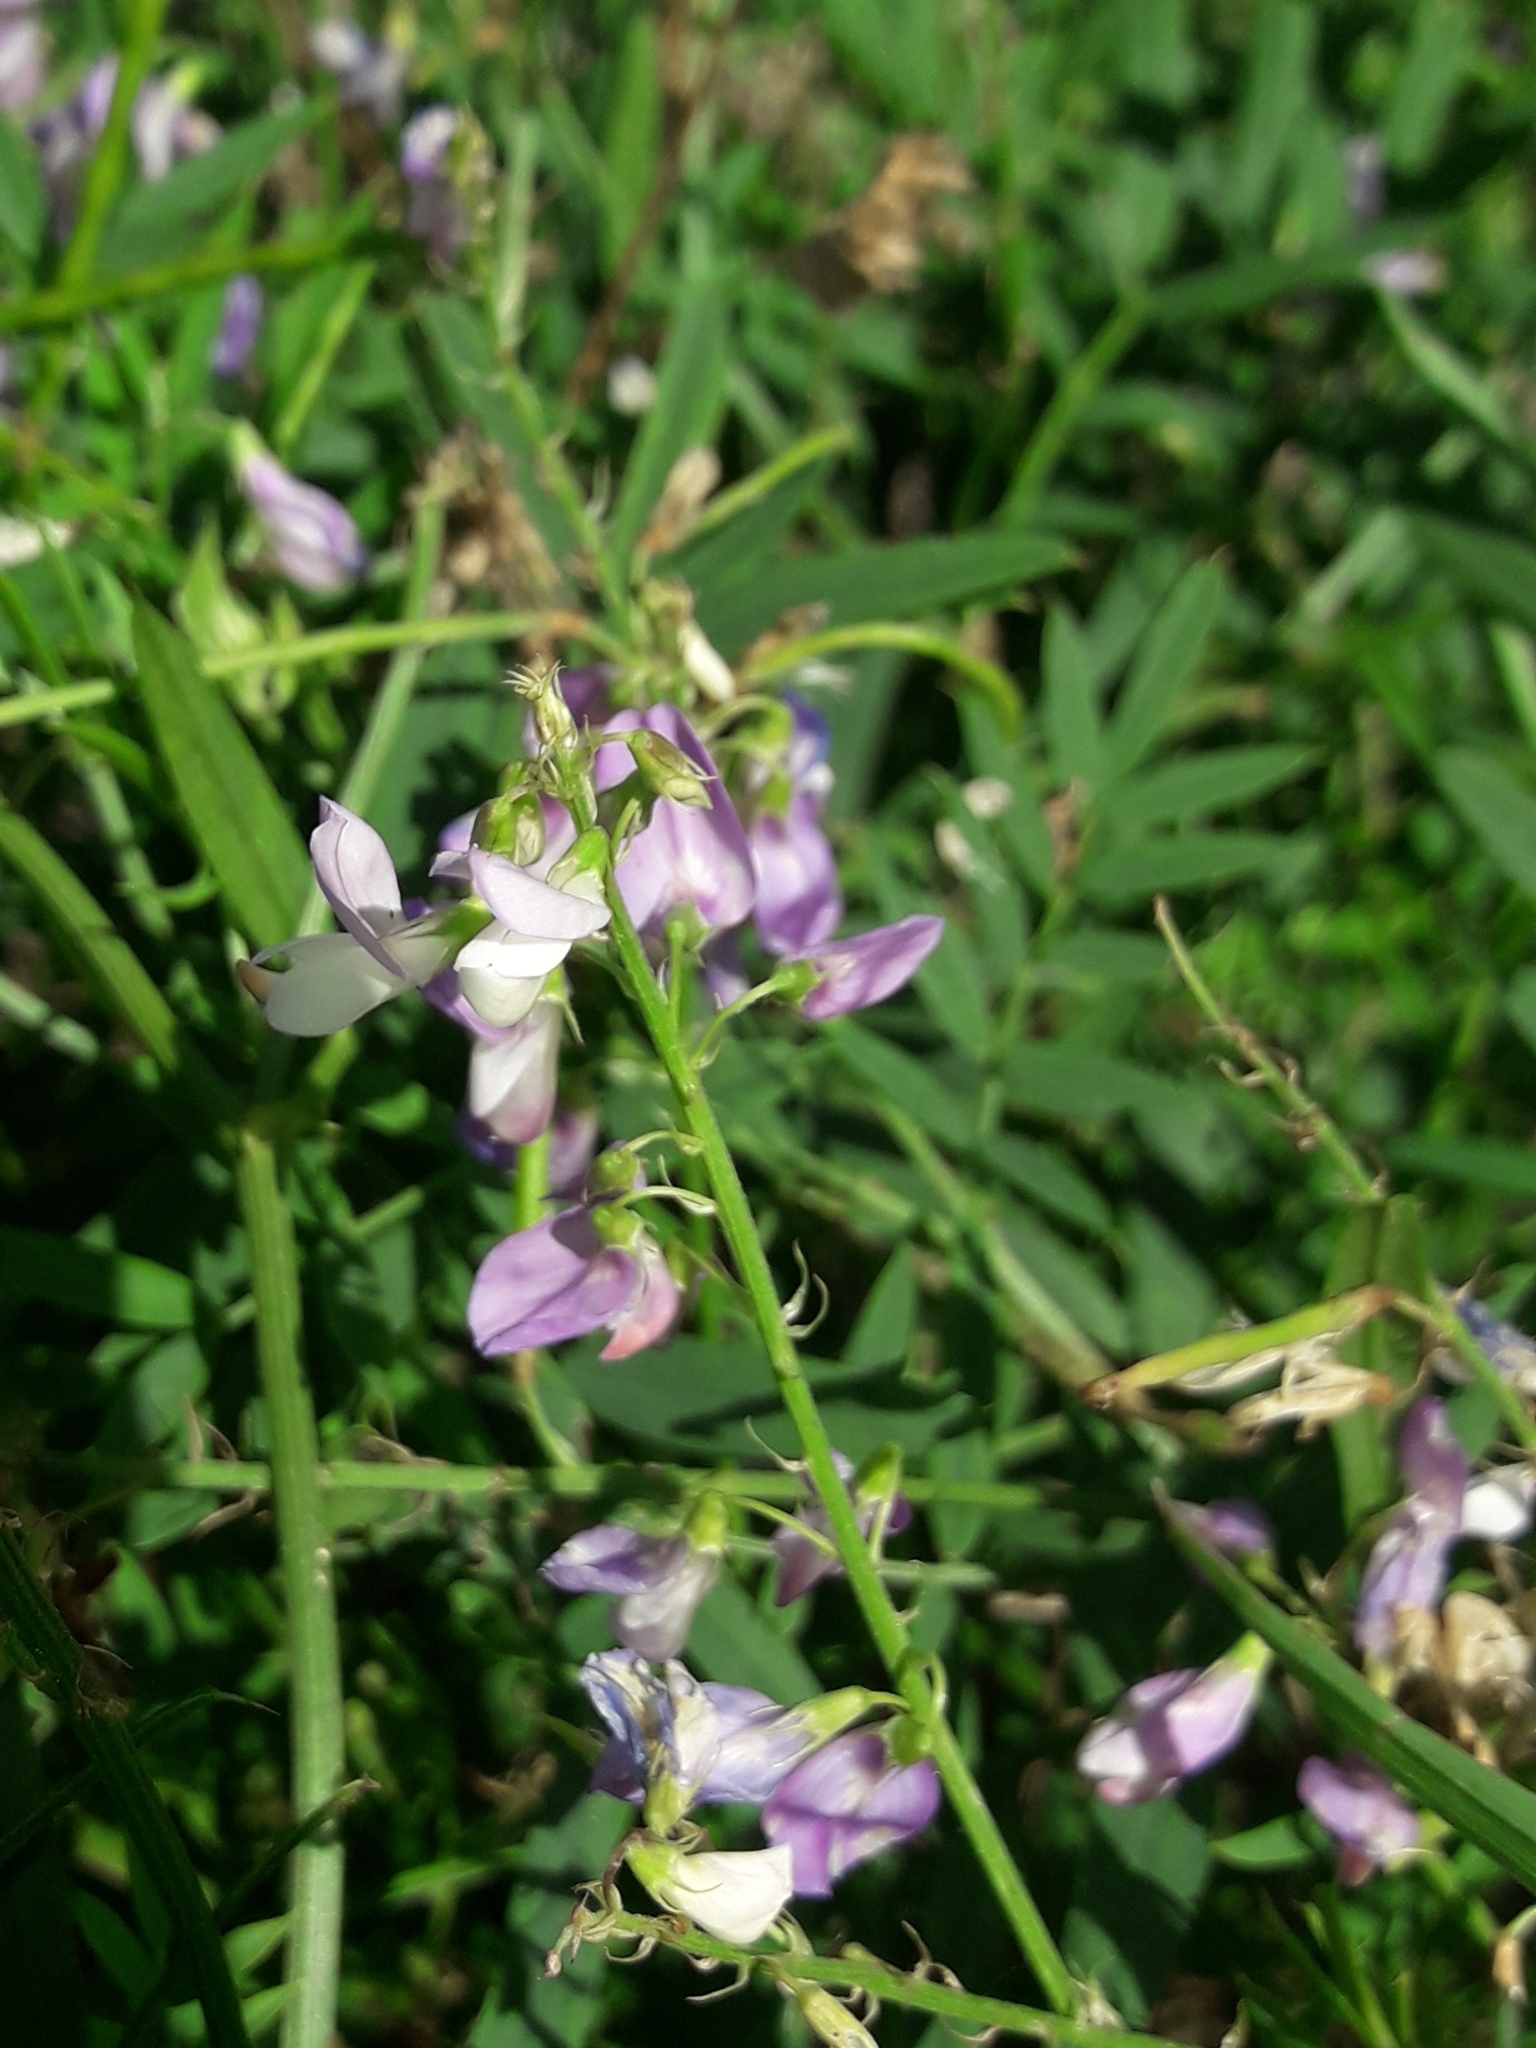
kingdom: Plantae
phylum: Tracheophyta
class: Magnoliopsida
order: Fabales
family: Fabaceae
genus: Galega
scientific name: Galega officinalis
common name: Goat's-rue
